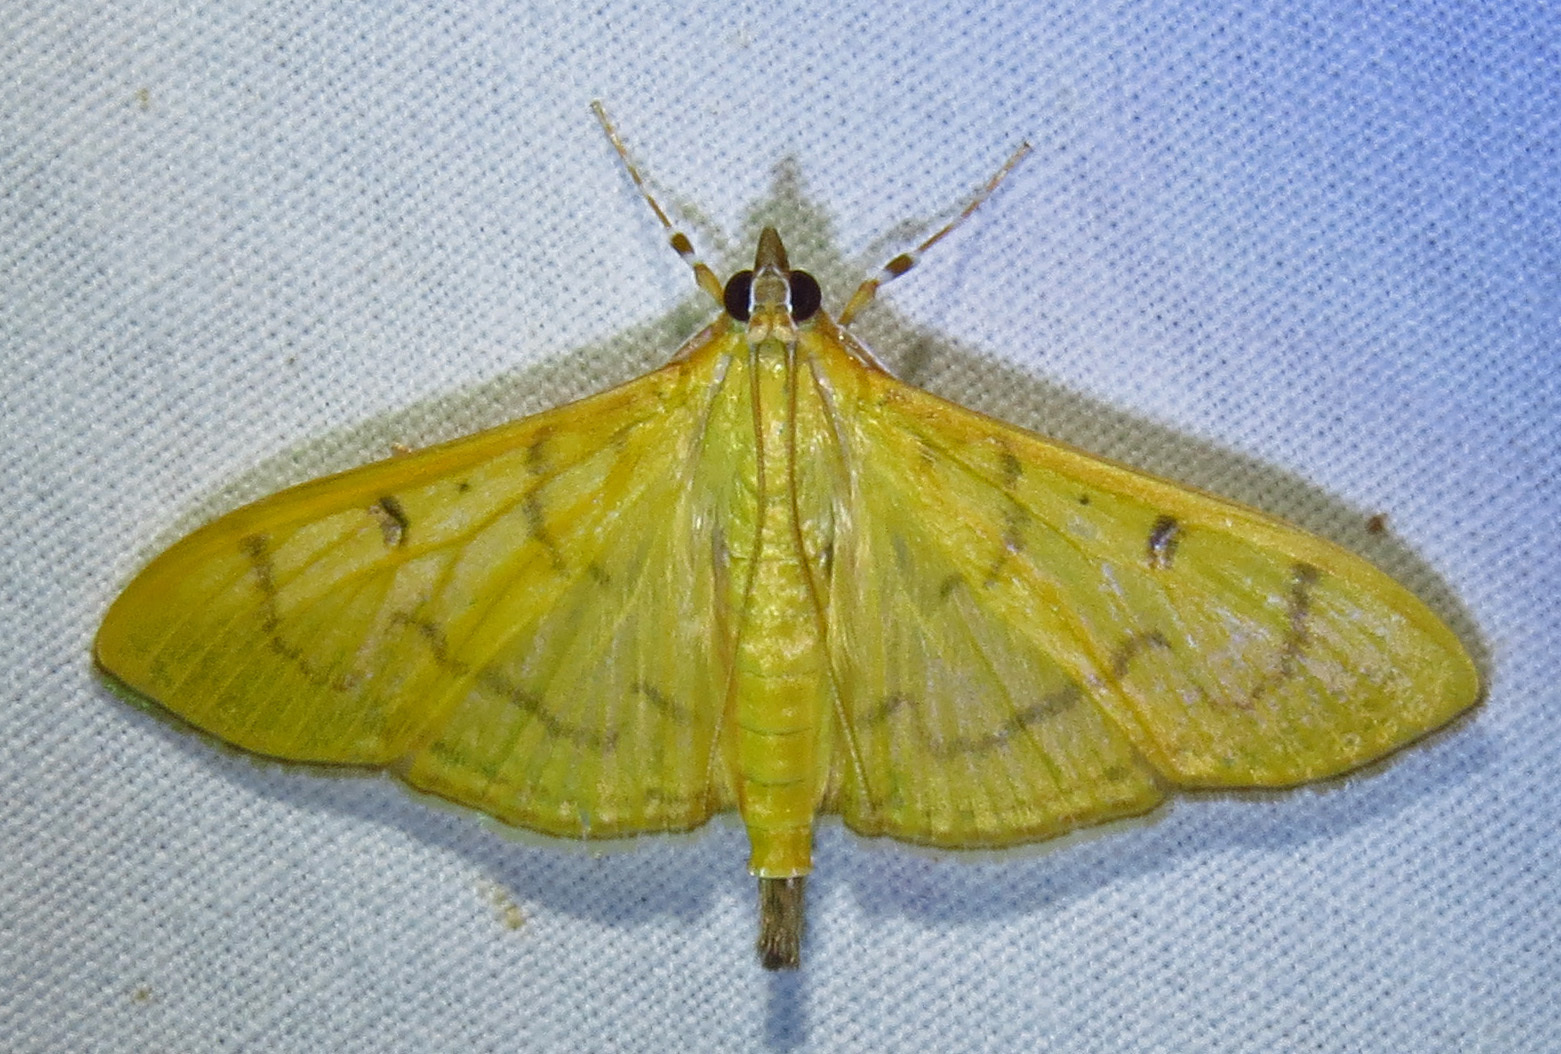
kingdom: Animalia
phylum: Arthropoda
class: Insecta
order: Lepidoptera
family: Crambidae
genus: Condylorrhiza
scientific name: Condylorrhiza vestigialis
